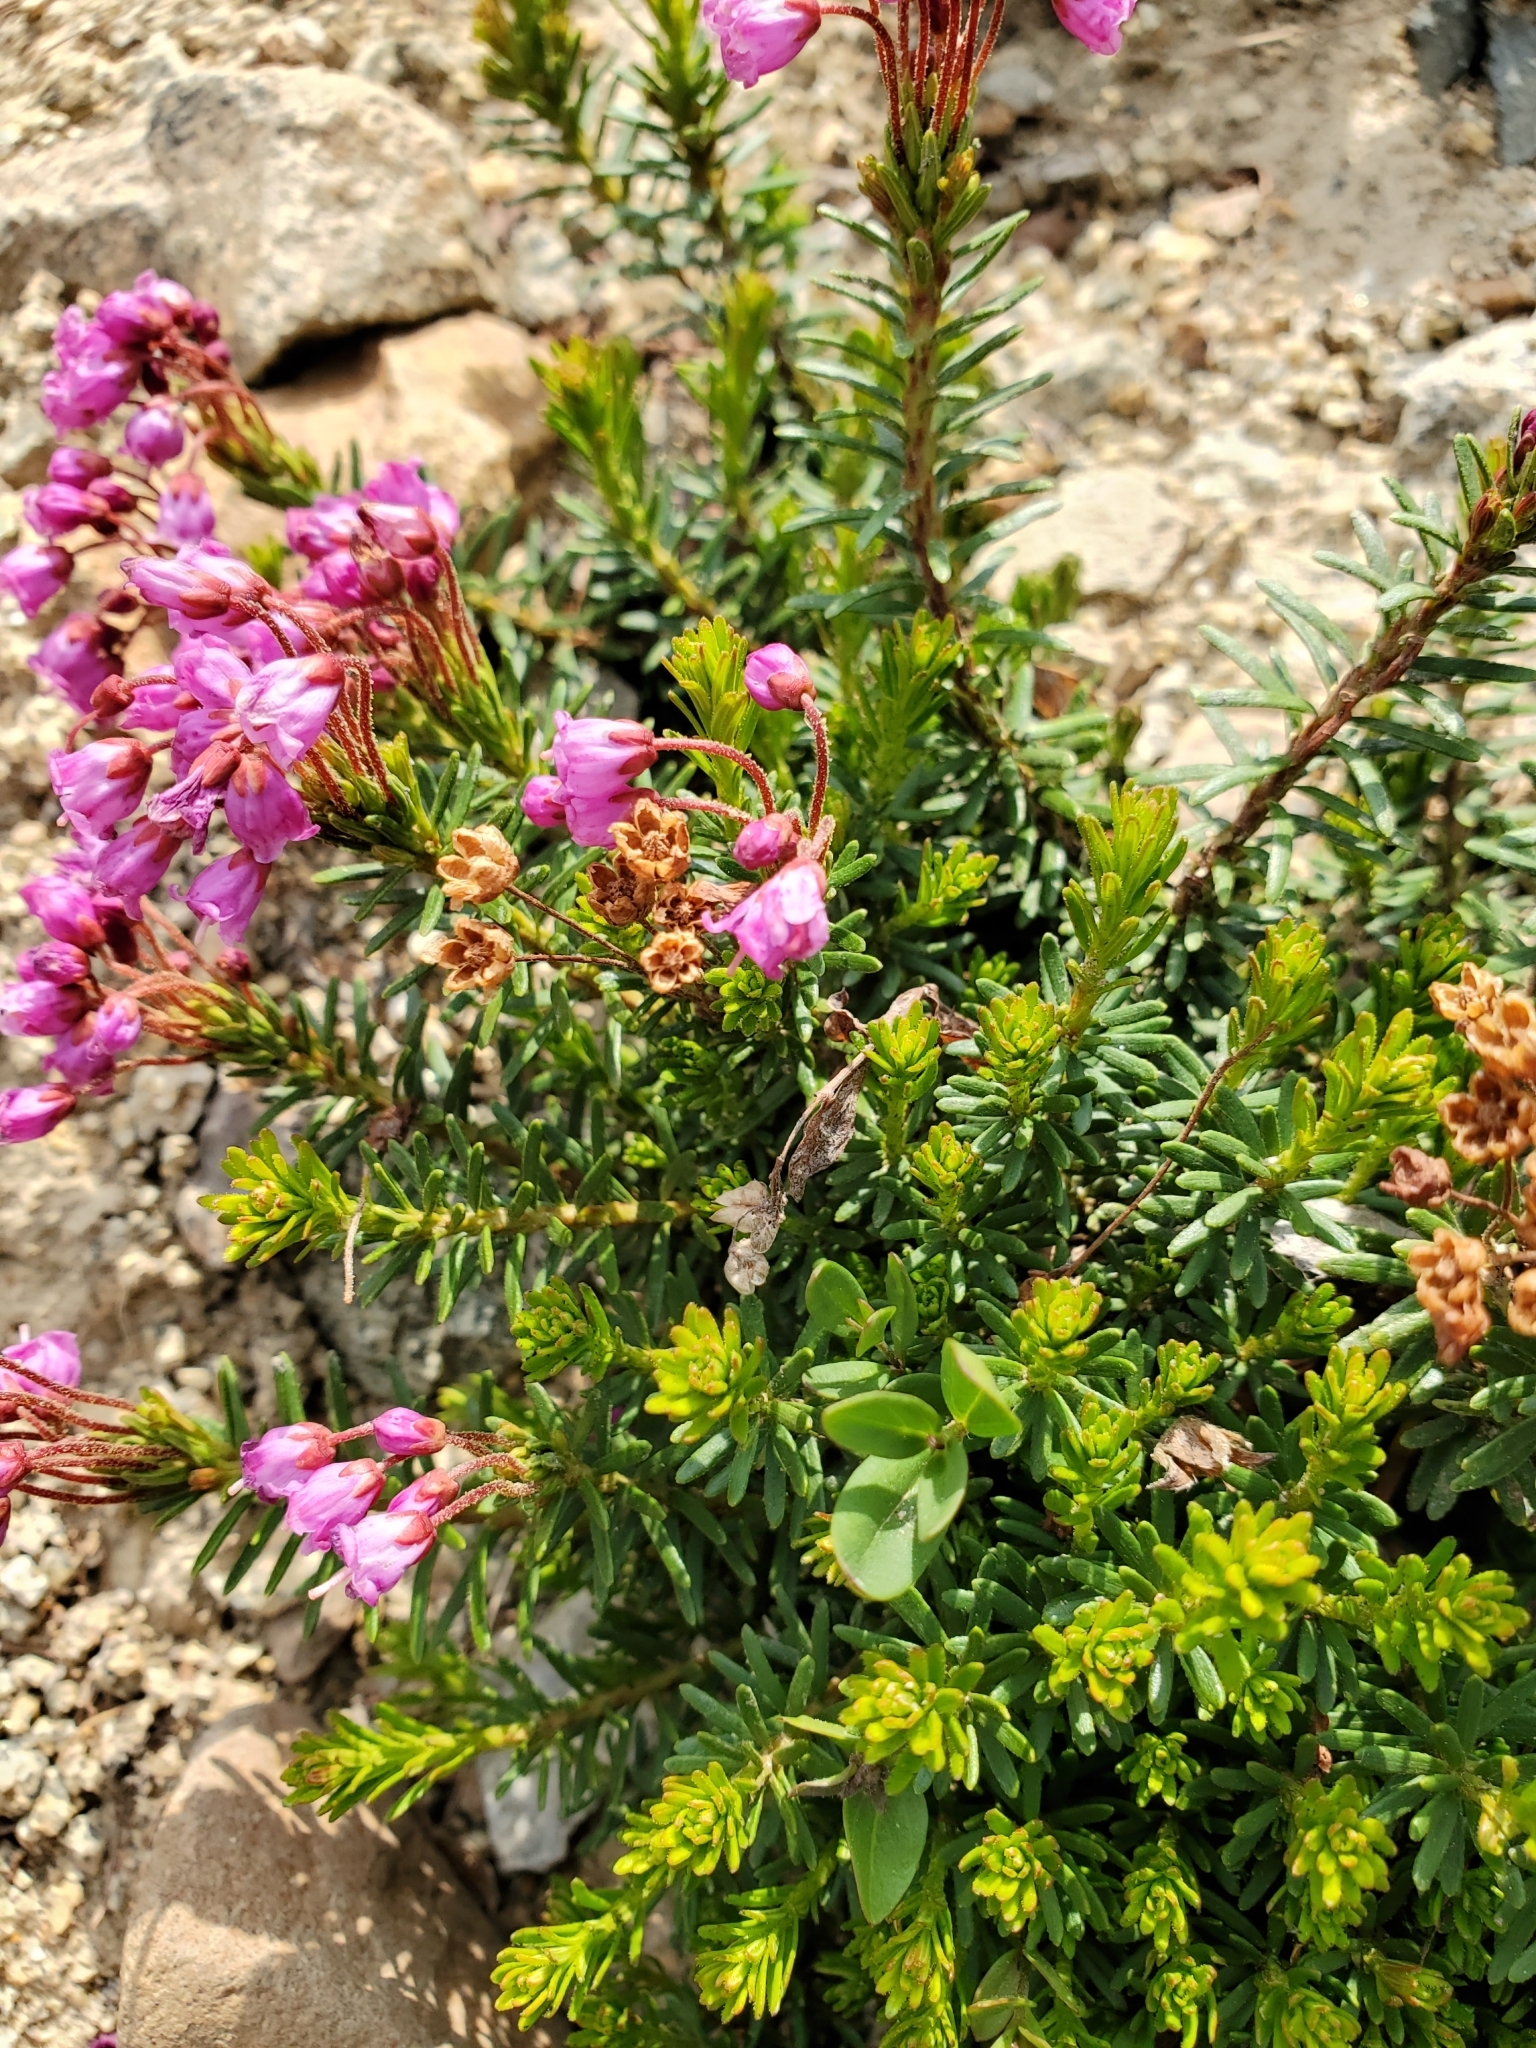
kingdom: Plantae
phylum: Tracheophyta
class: Magnoliopsida
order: Ericales
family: Ericaceae
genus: Phyllodoce
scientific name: Phyllodoce empetriformis
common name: Pink mountain heather
